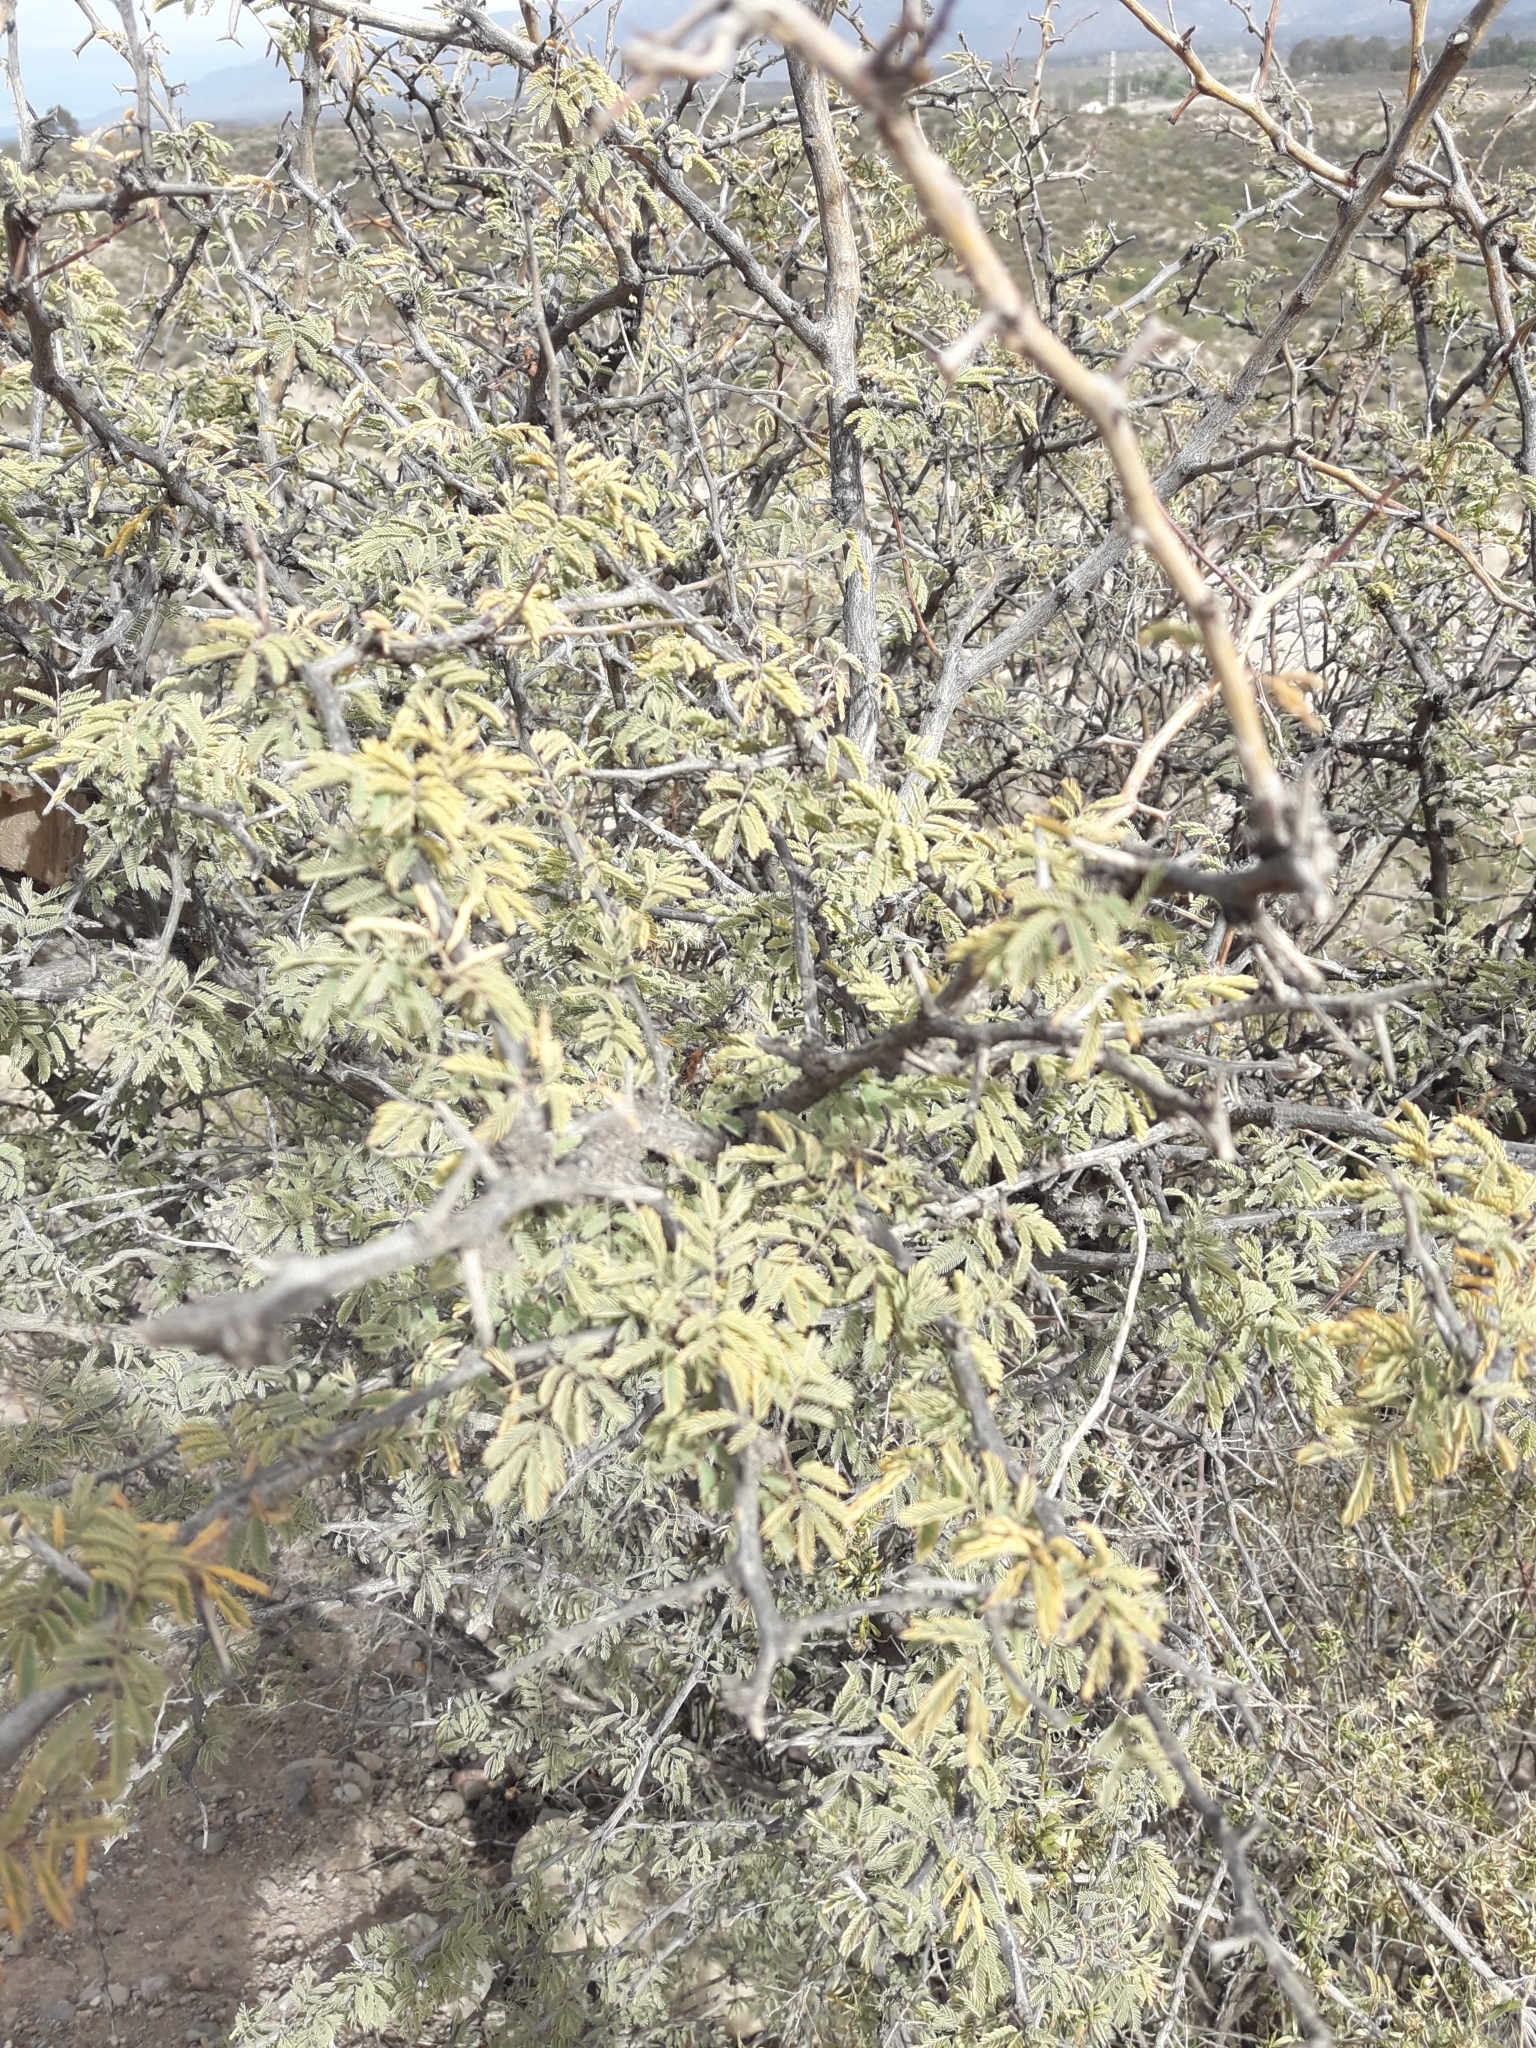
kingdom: Plantae
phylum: Tracheophyta
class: Magnoliopsida
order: Fabales
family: Fabaceae
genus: Senegalia
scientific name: Senegalia gilliesii
